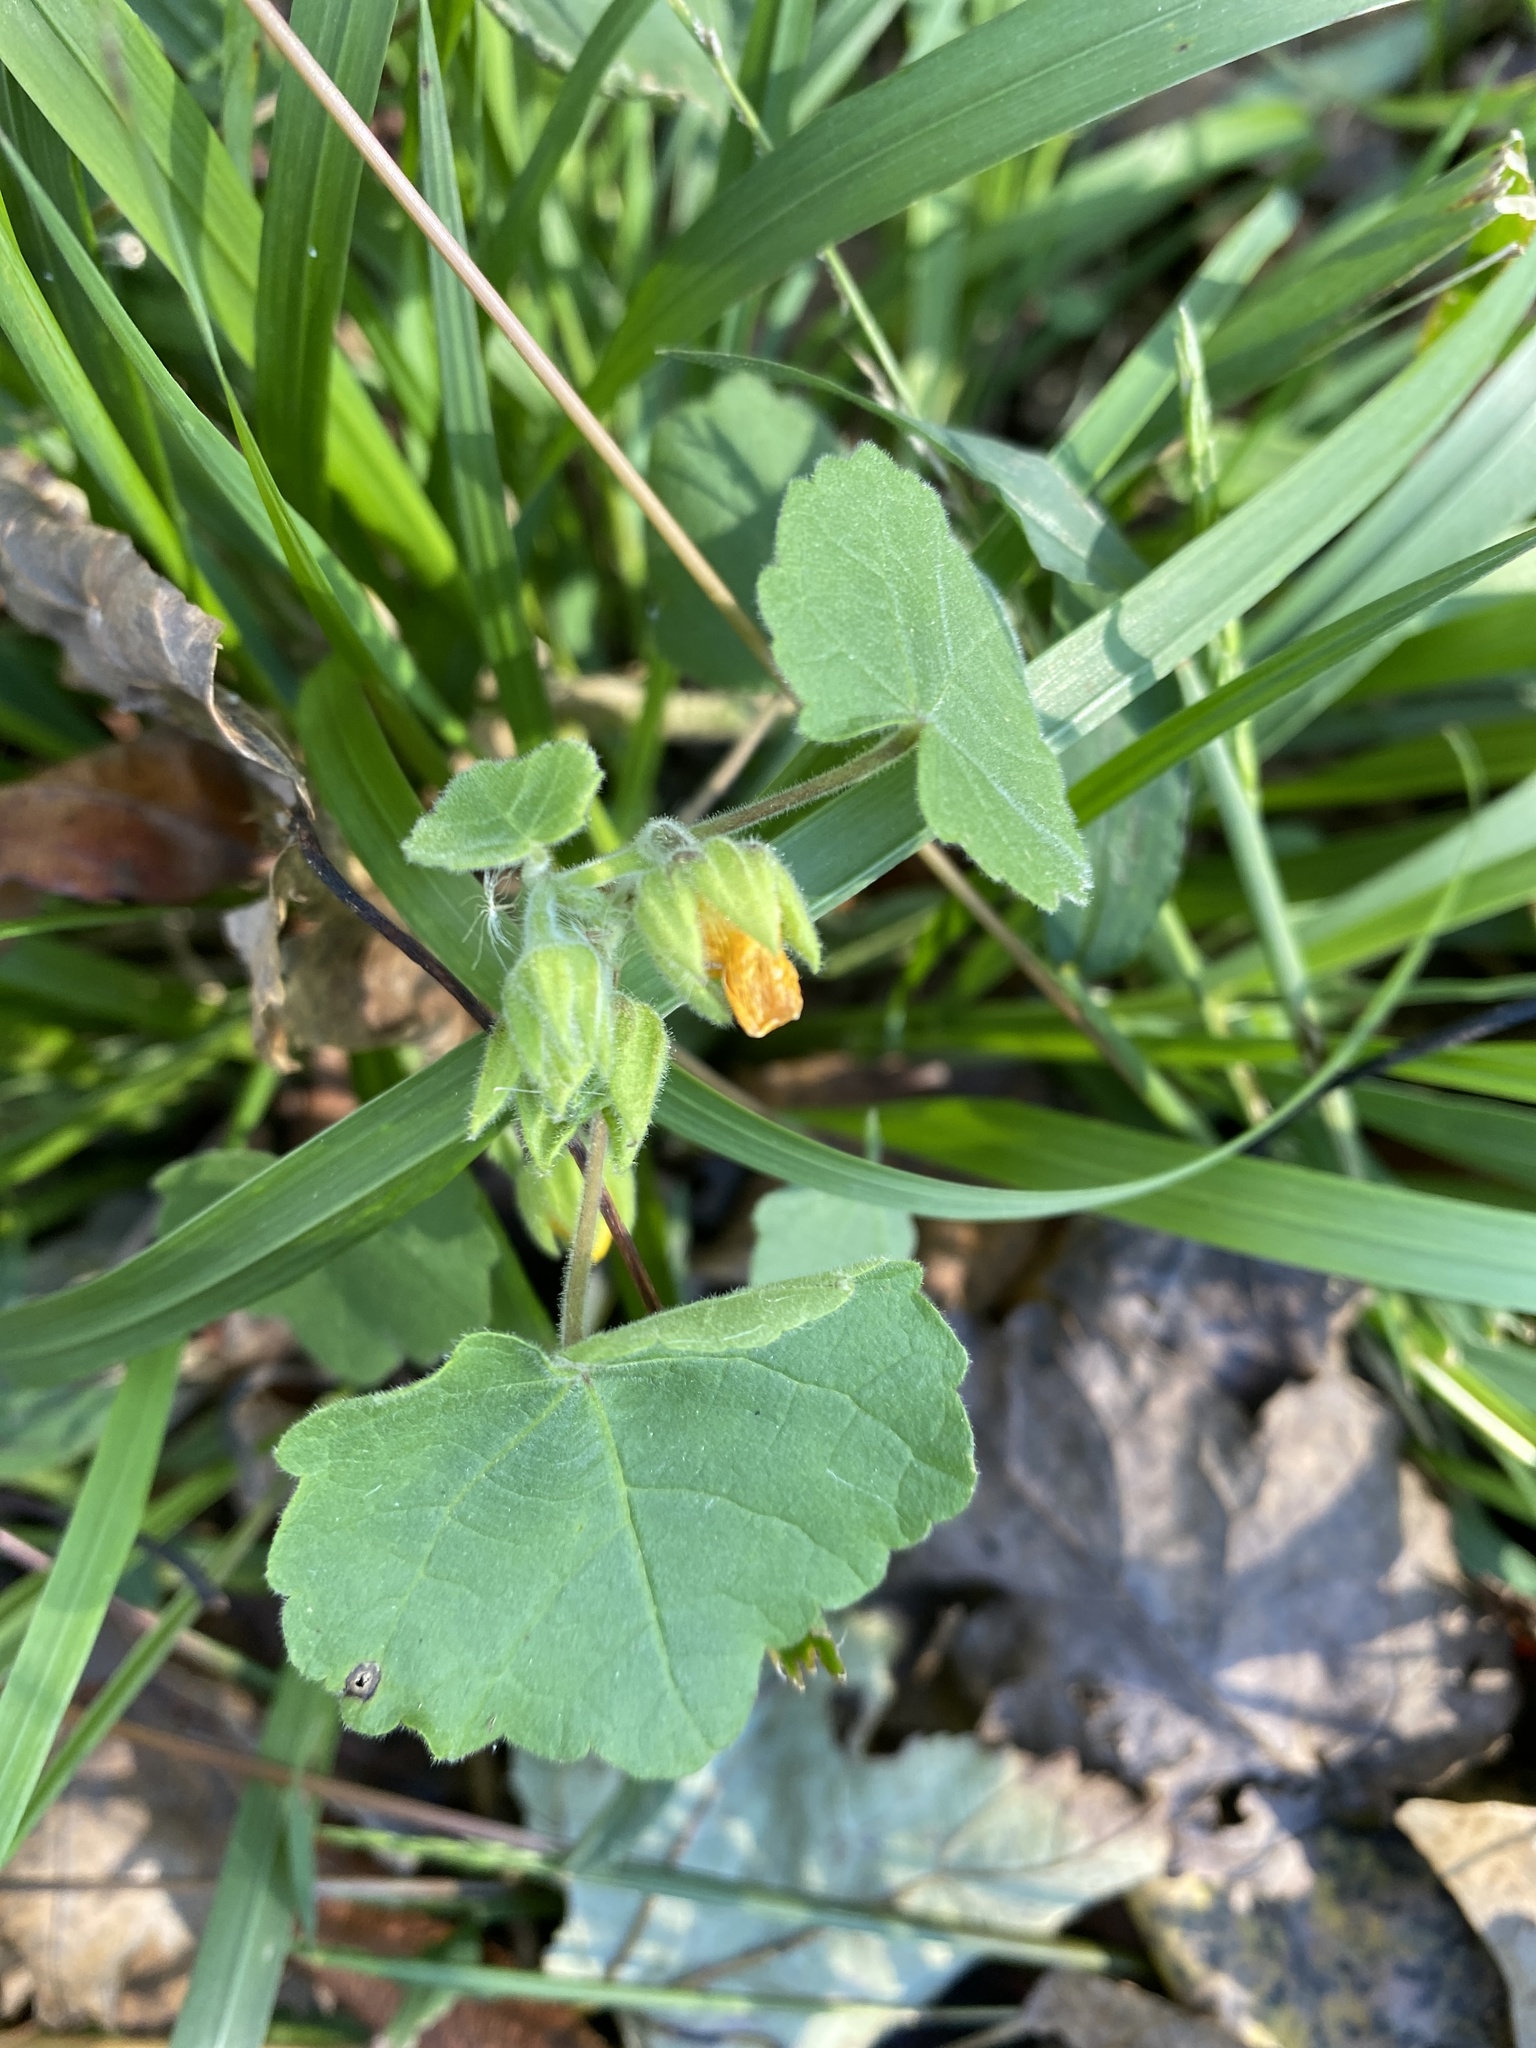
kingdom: Plantae
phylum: Tracheophyta
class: Magnoliopsida
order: Malvales
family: Malvaceae
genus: Abutilon
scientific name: Abutilon theophrasti
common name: Velvetleaf
